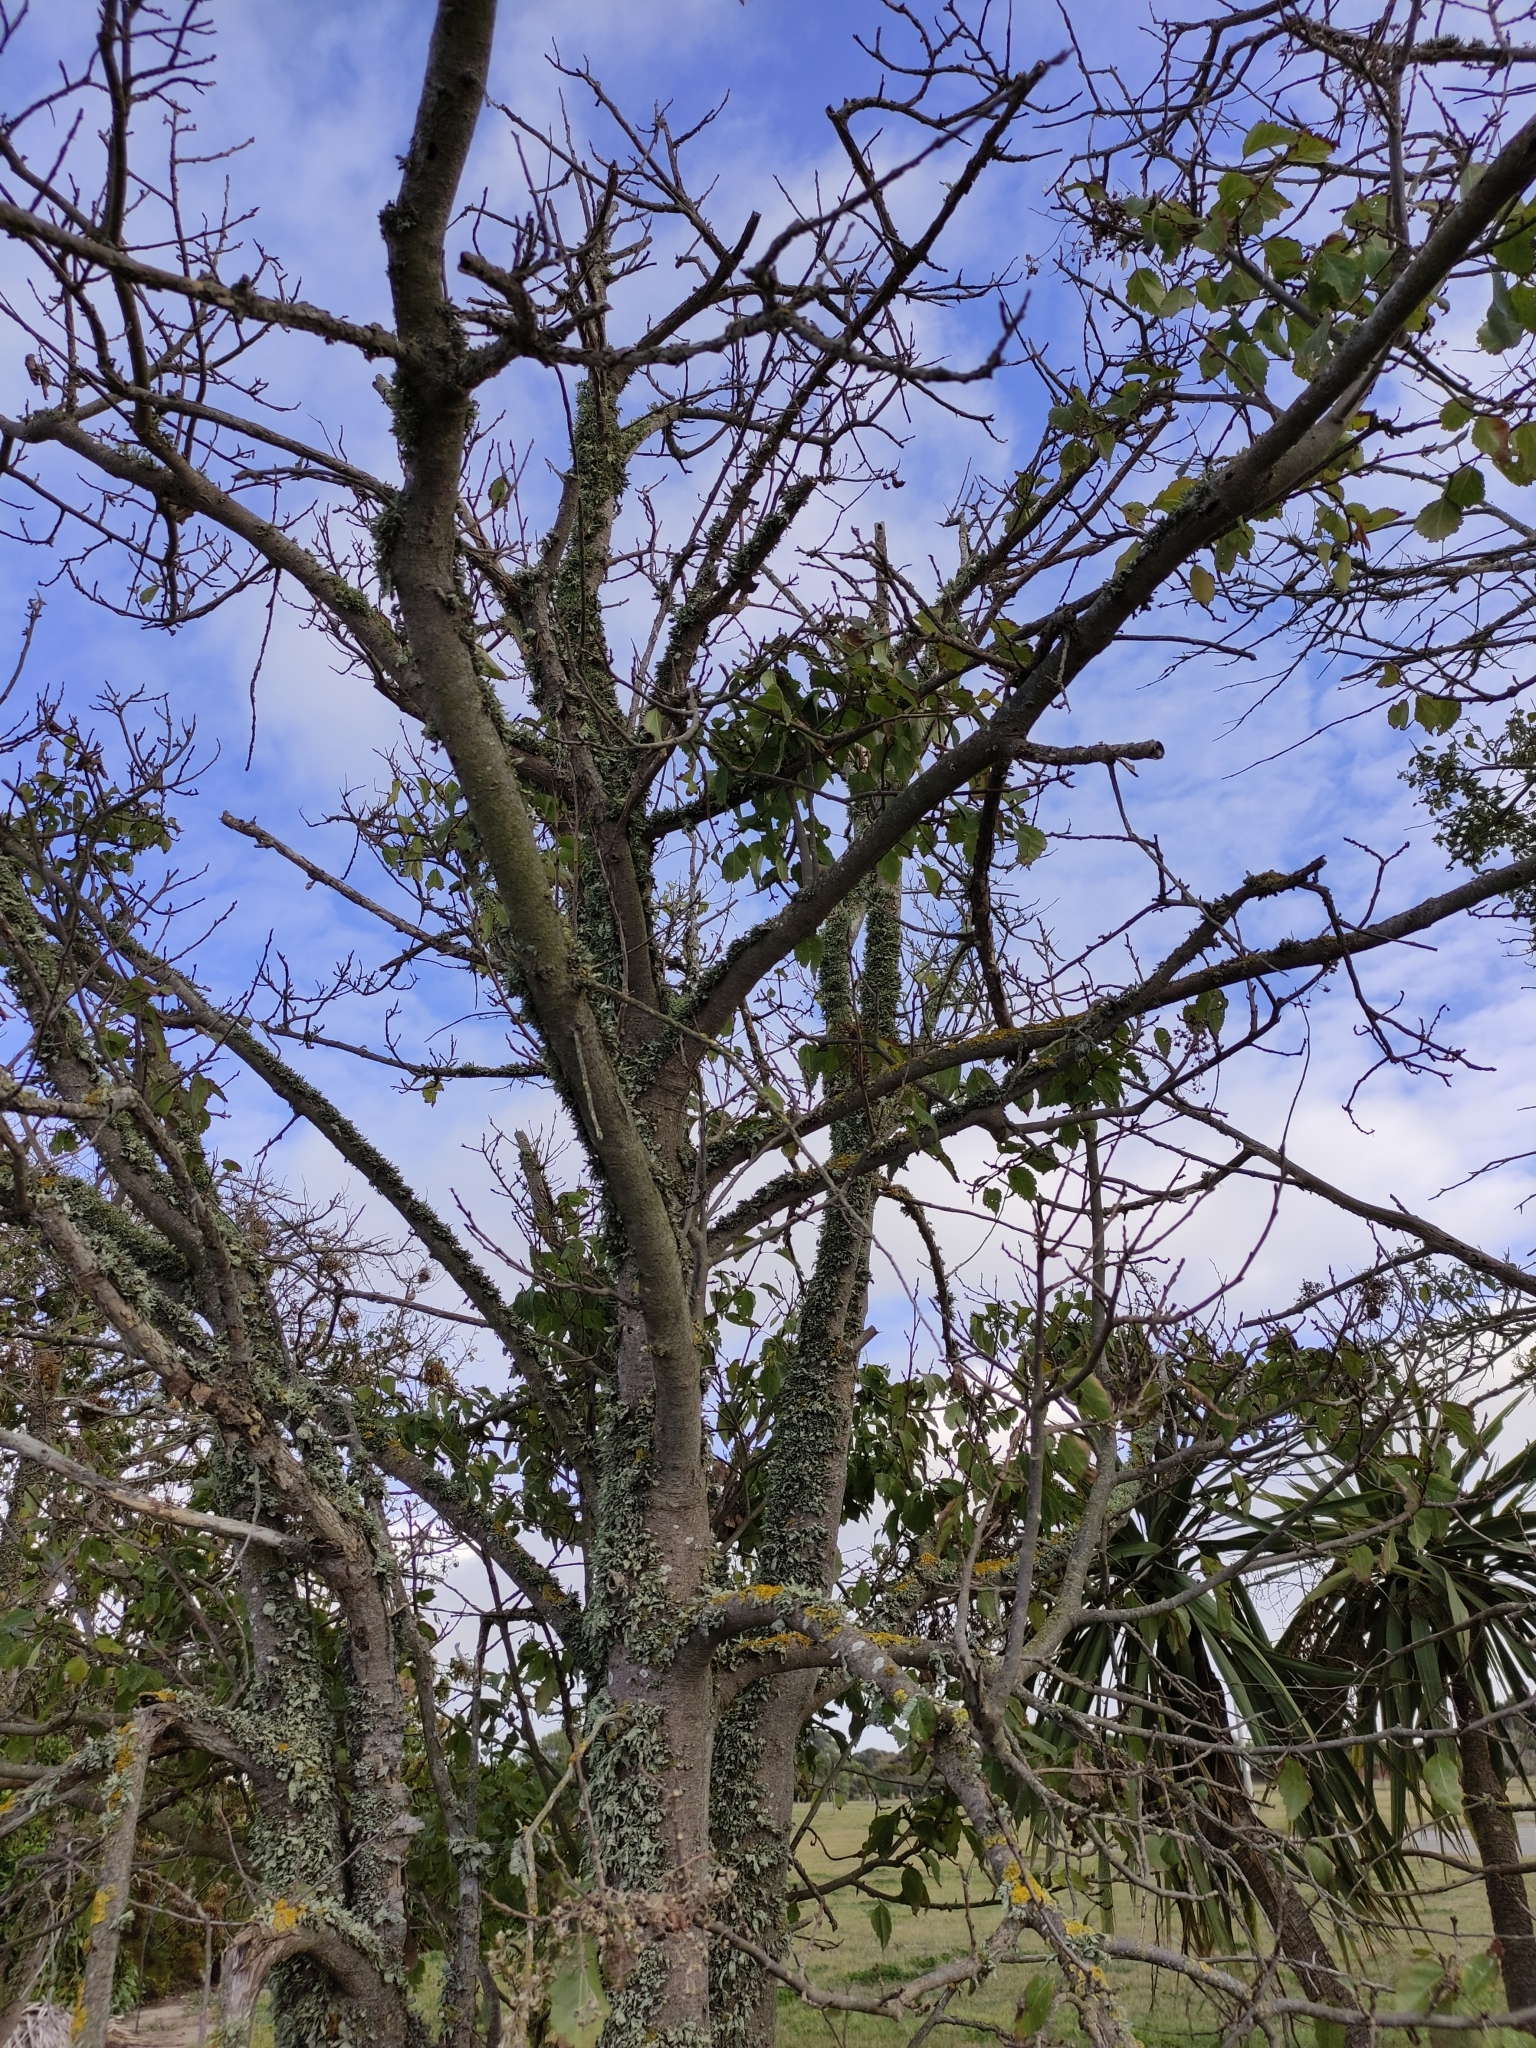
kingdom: Plantae
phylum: Tracheophyta
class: Magnoliopsida
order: Malvales
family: Malvaceae
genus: Plagianthus
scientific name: Plagianthus regius
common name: Manatu
